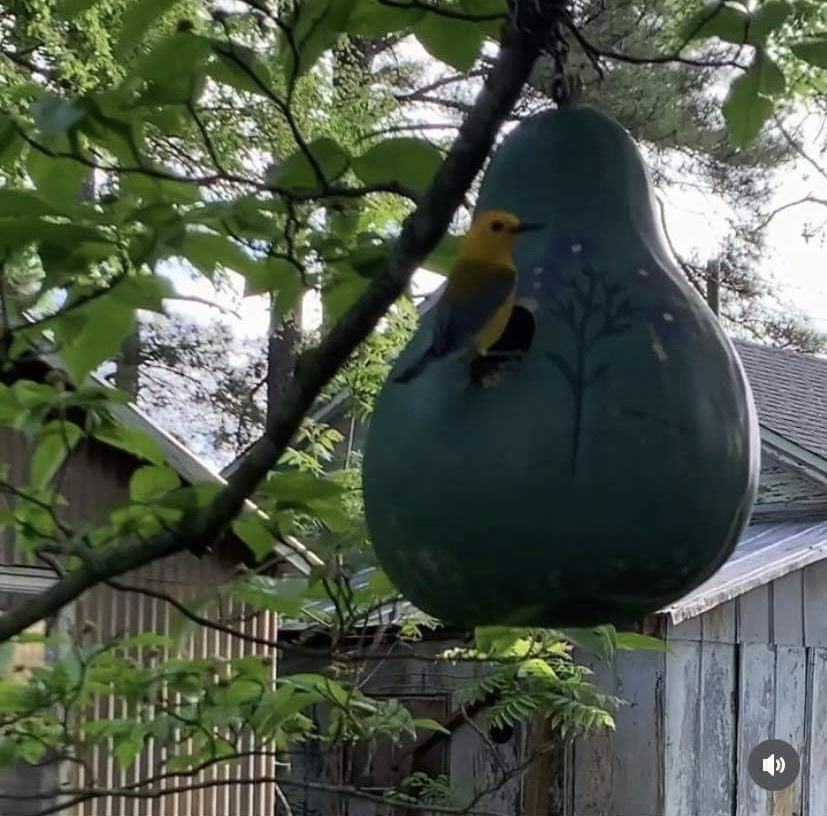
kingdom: Animalia
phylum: Chordata
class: Aves
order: Passeriformes
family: Parulidae
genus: Protonotaria
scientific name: Protonotaria citrea
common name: Prothonotary warbler
